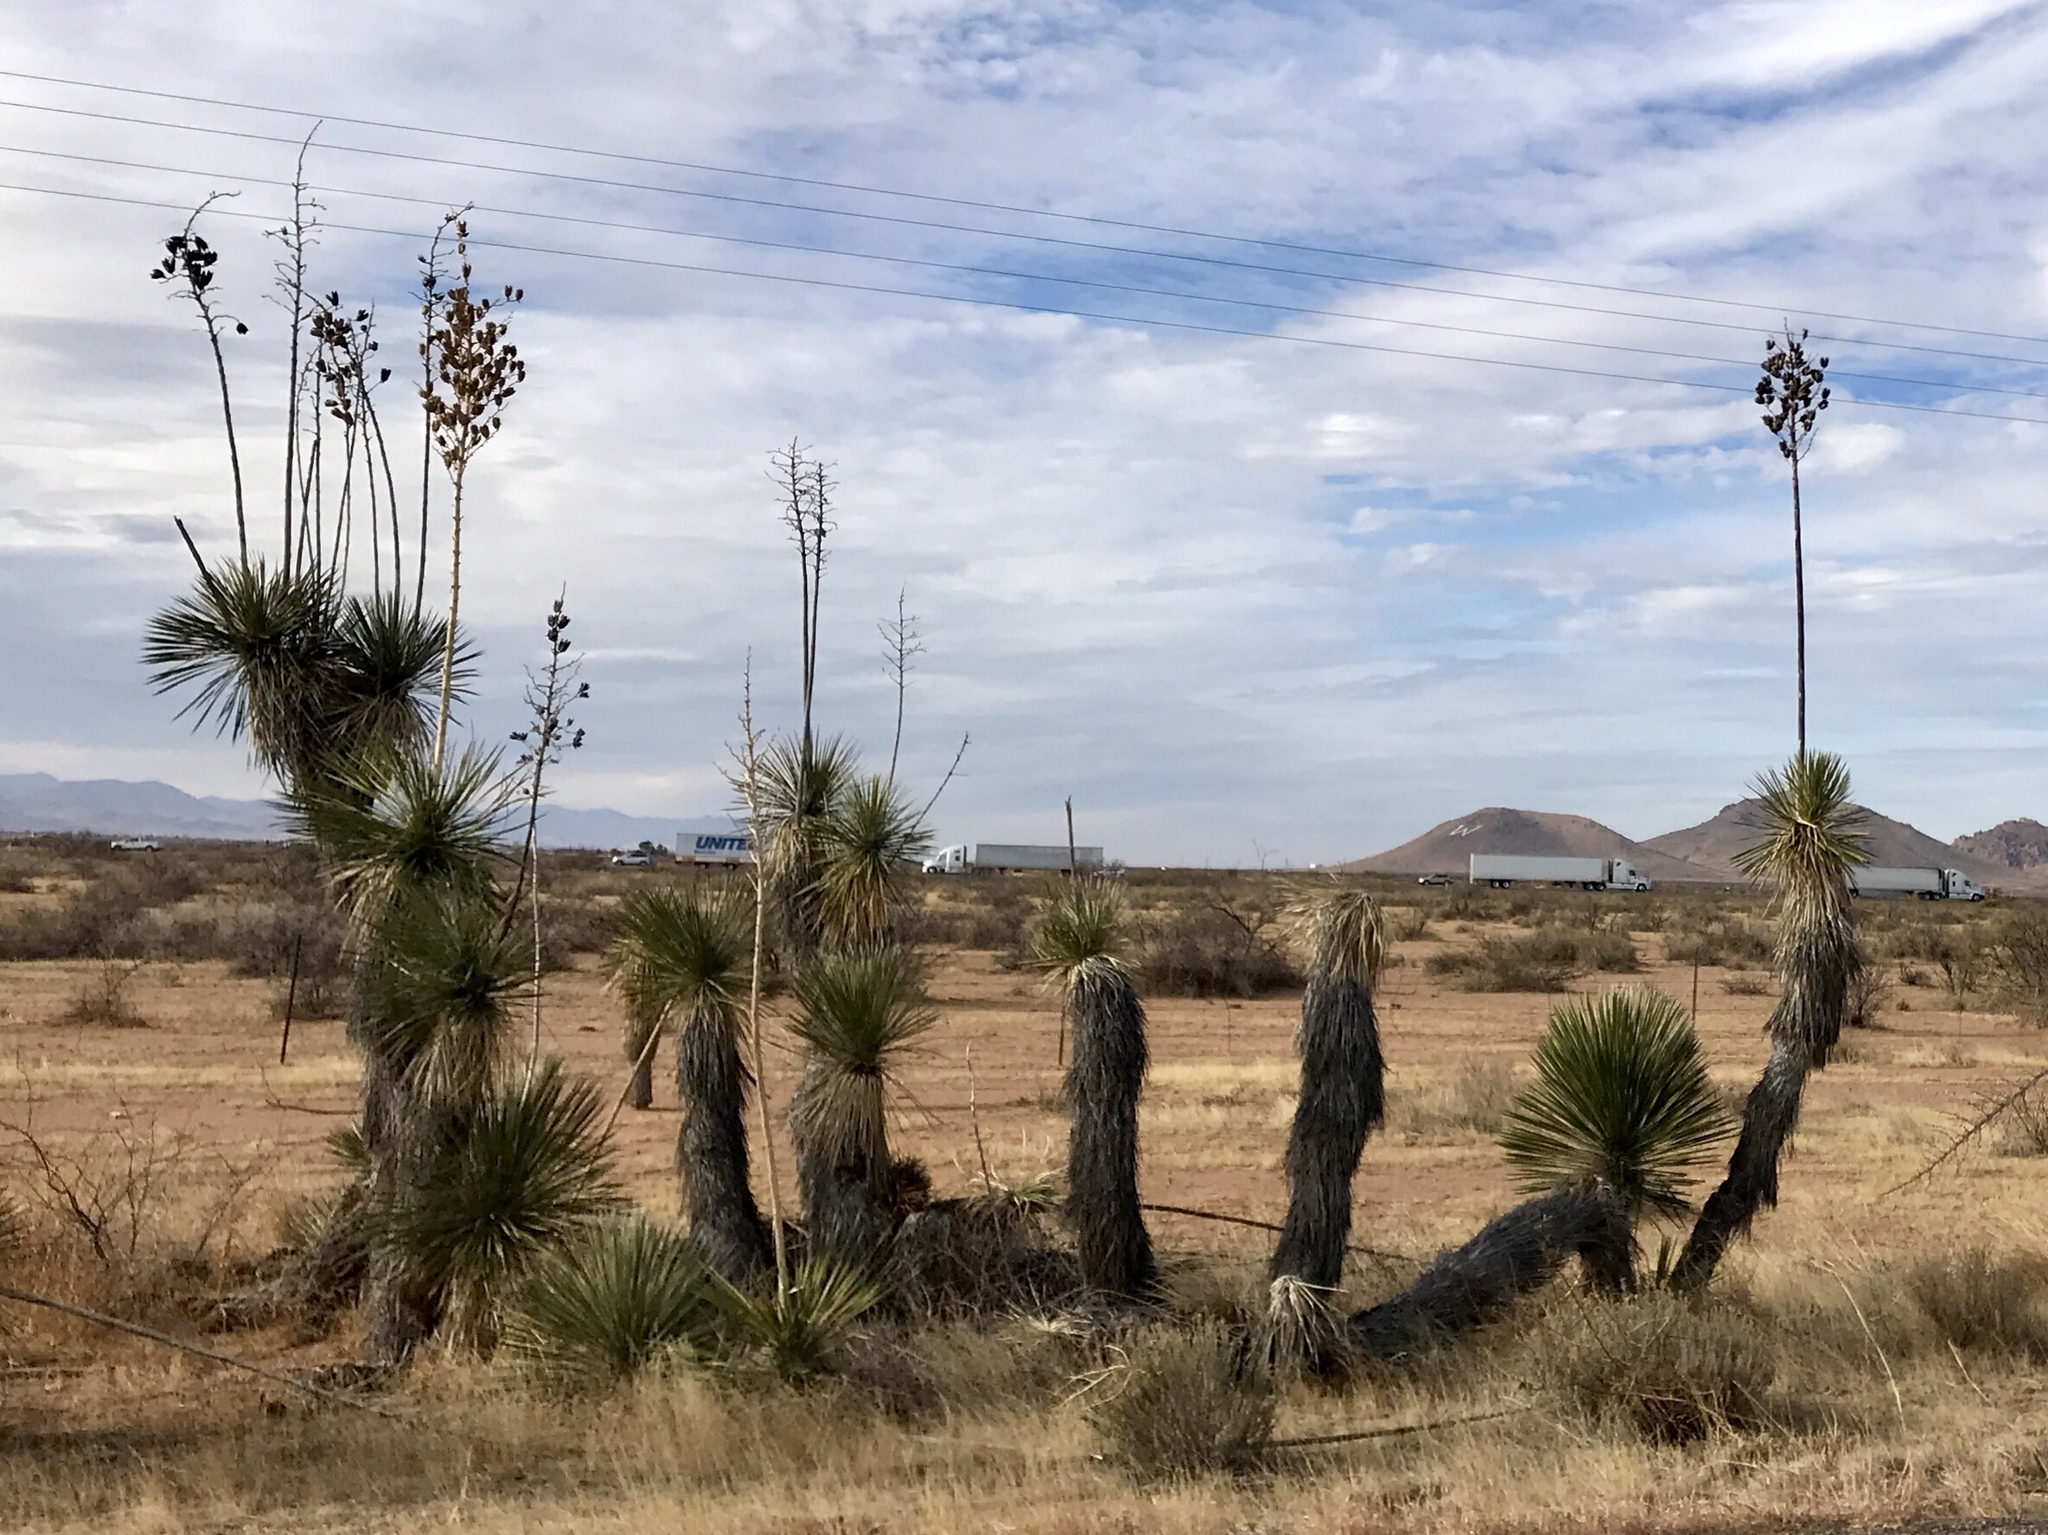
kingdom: Plantae
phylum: Tracheophyta
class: Liliopsida
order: Asparagales
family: Asparagaceae
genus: Yucca
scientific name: Yucca elata
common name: Palmella
